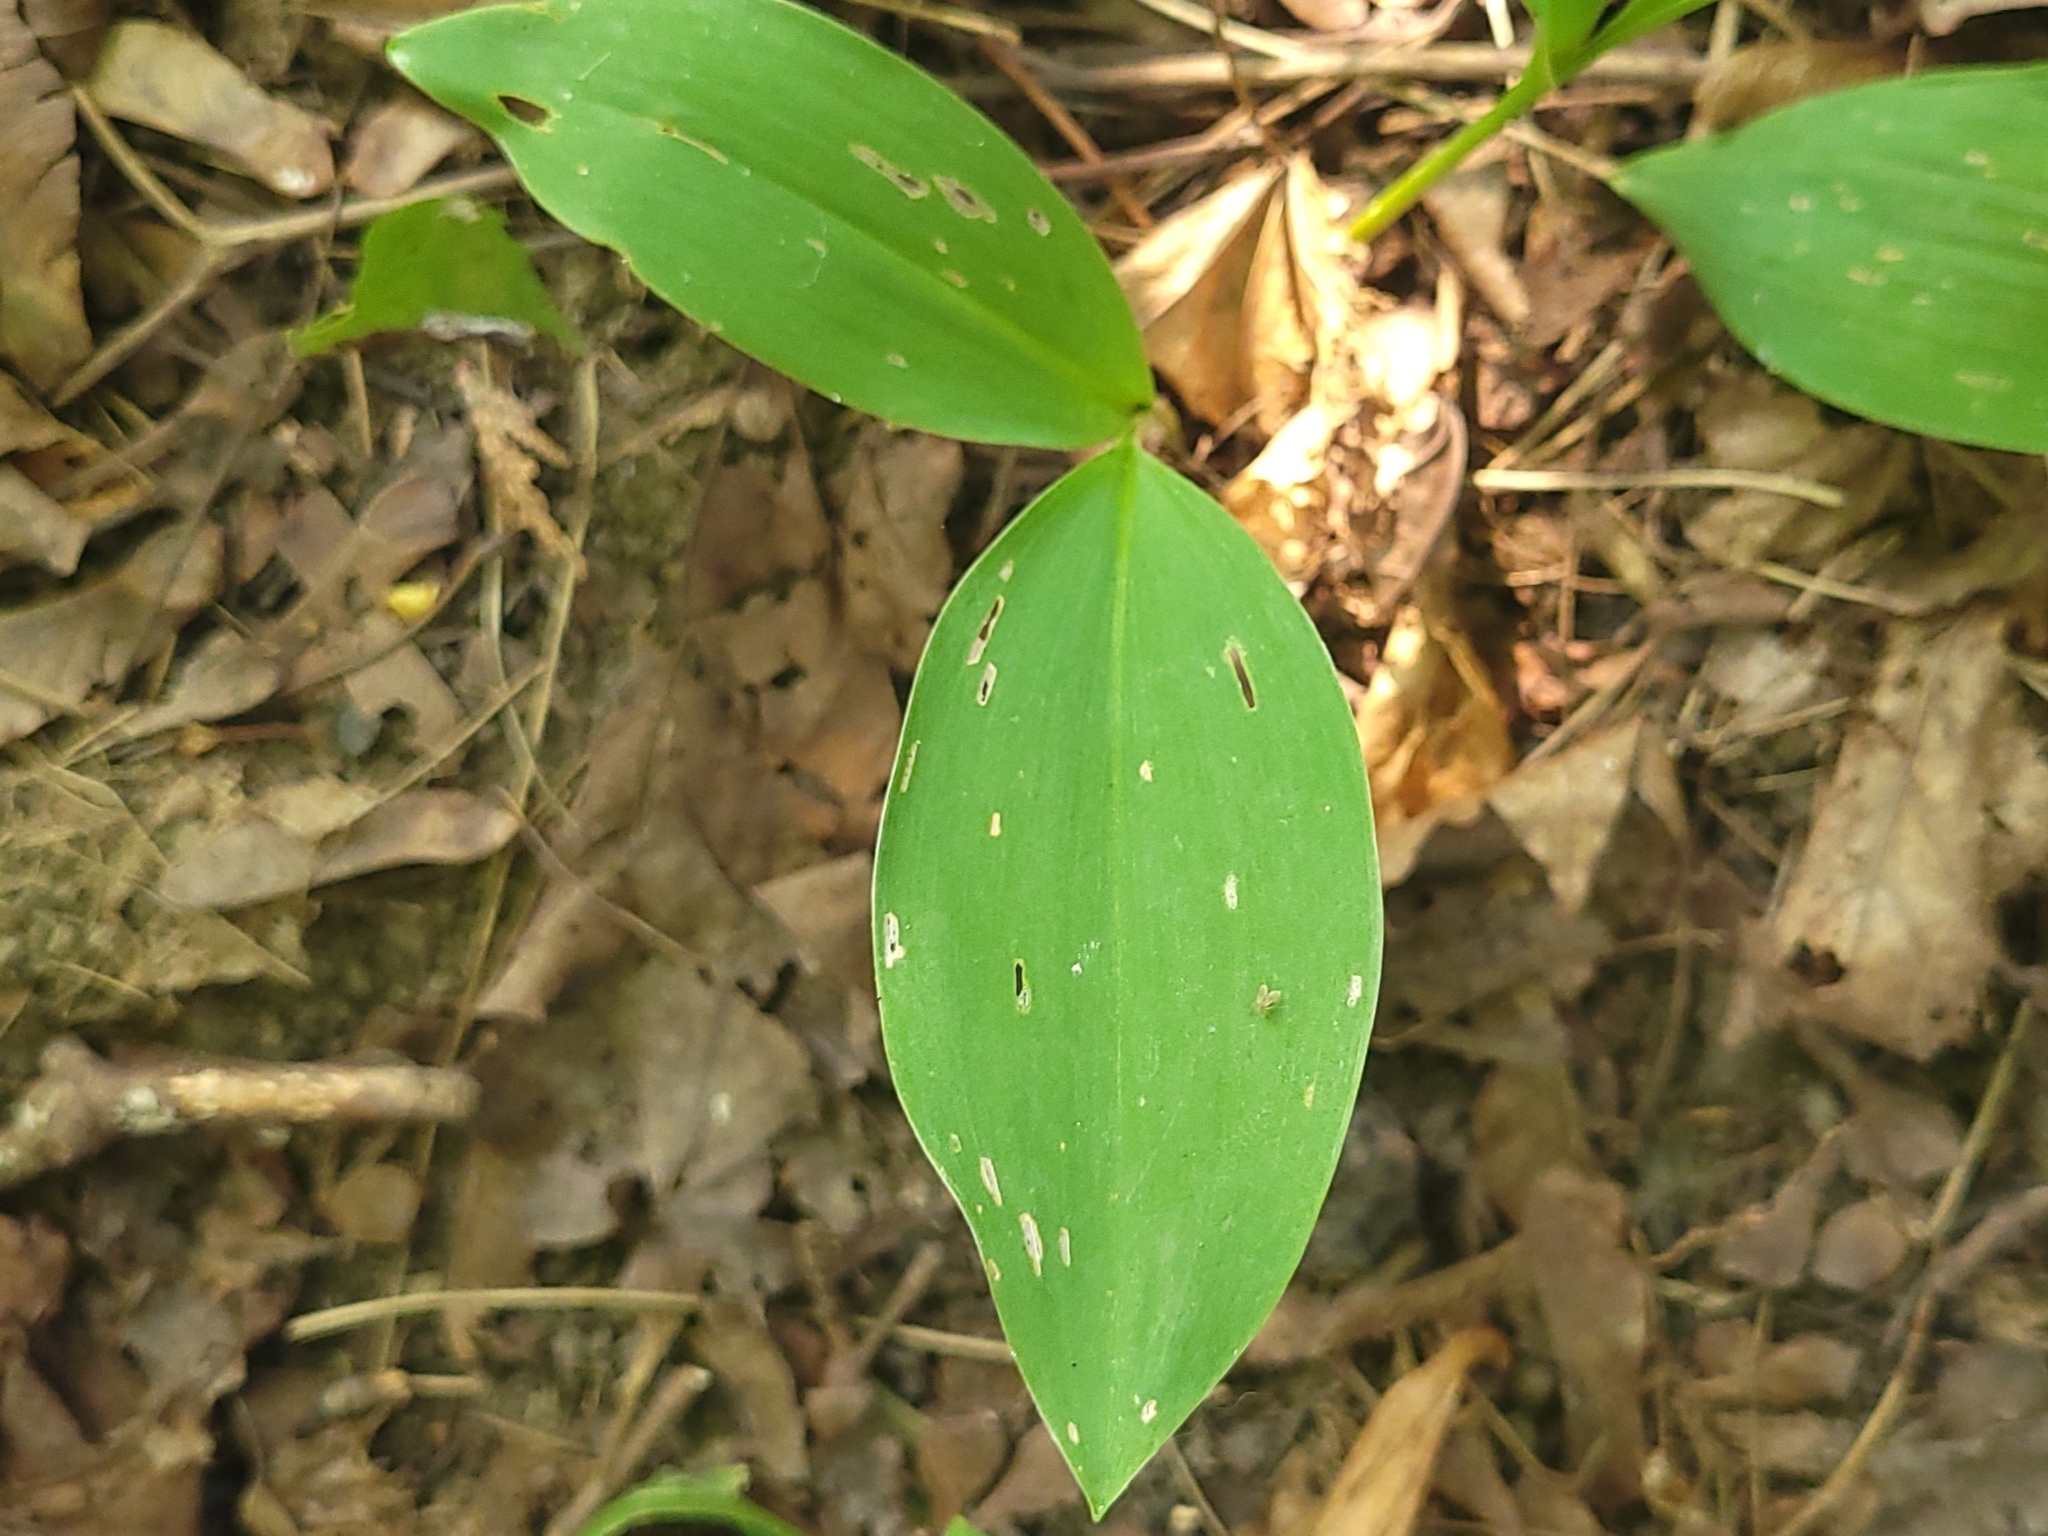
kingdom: Plantae
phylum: Tracheophyta
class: Liliopsida
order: Asparagales
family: Asparagaceae
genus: Convallaria
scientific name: Convallaria majalis
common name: Lily-of-the-valley
